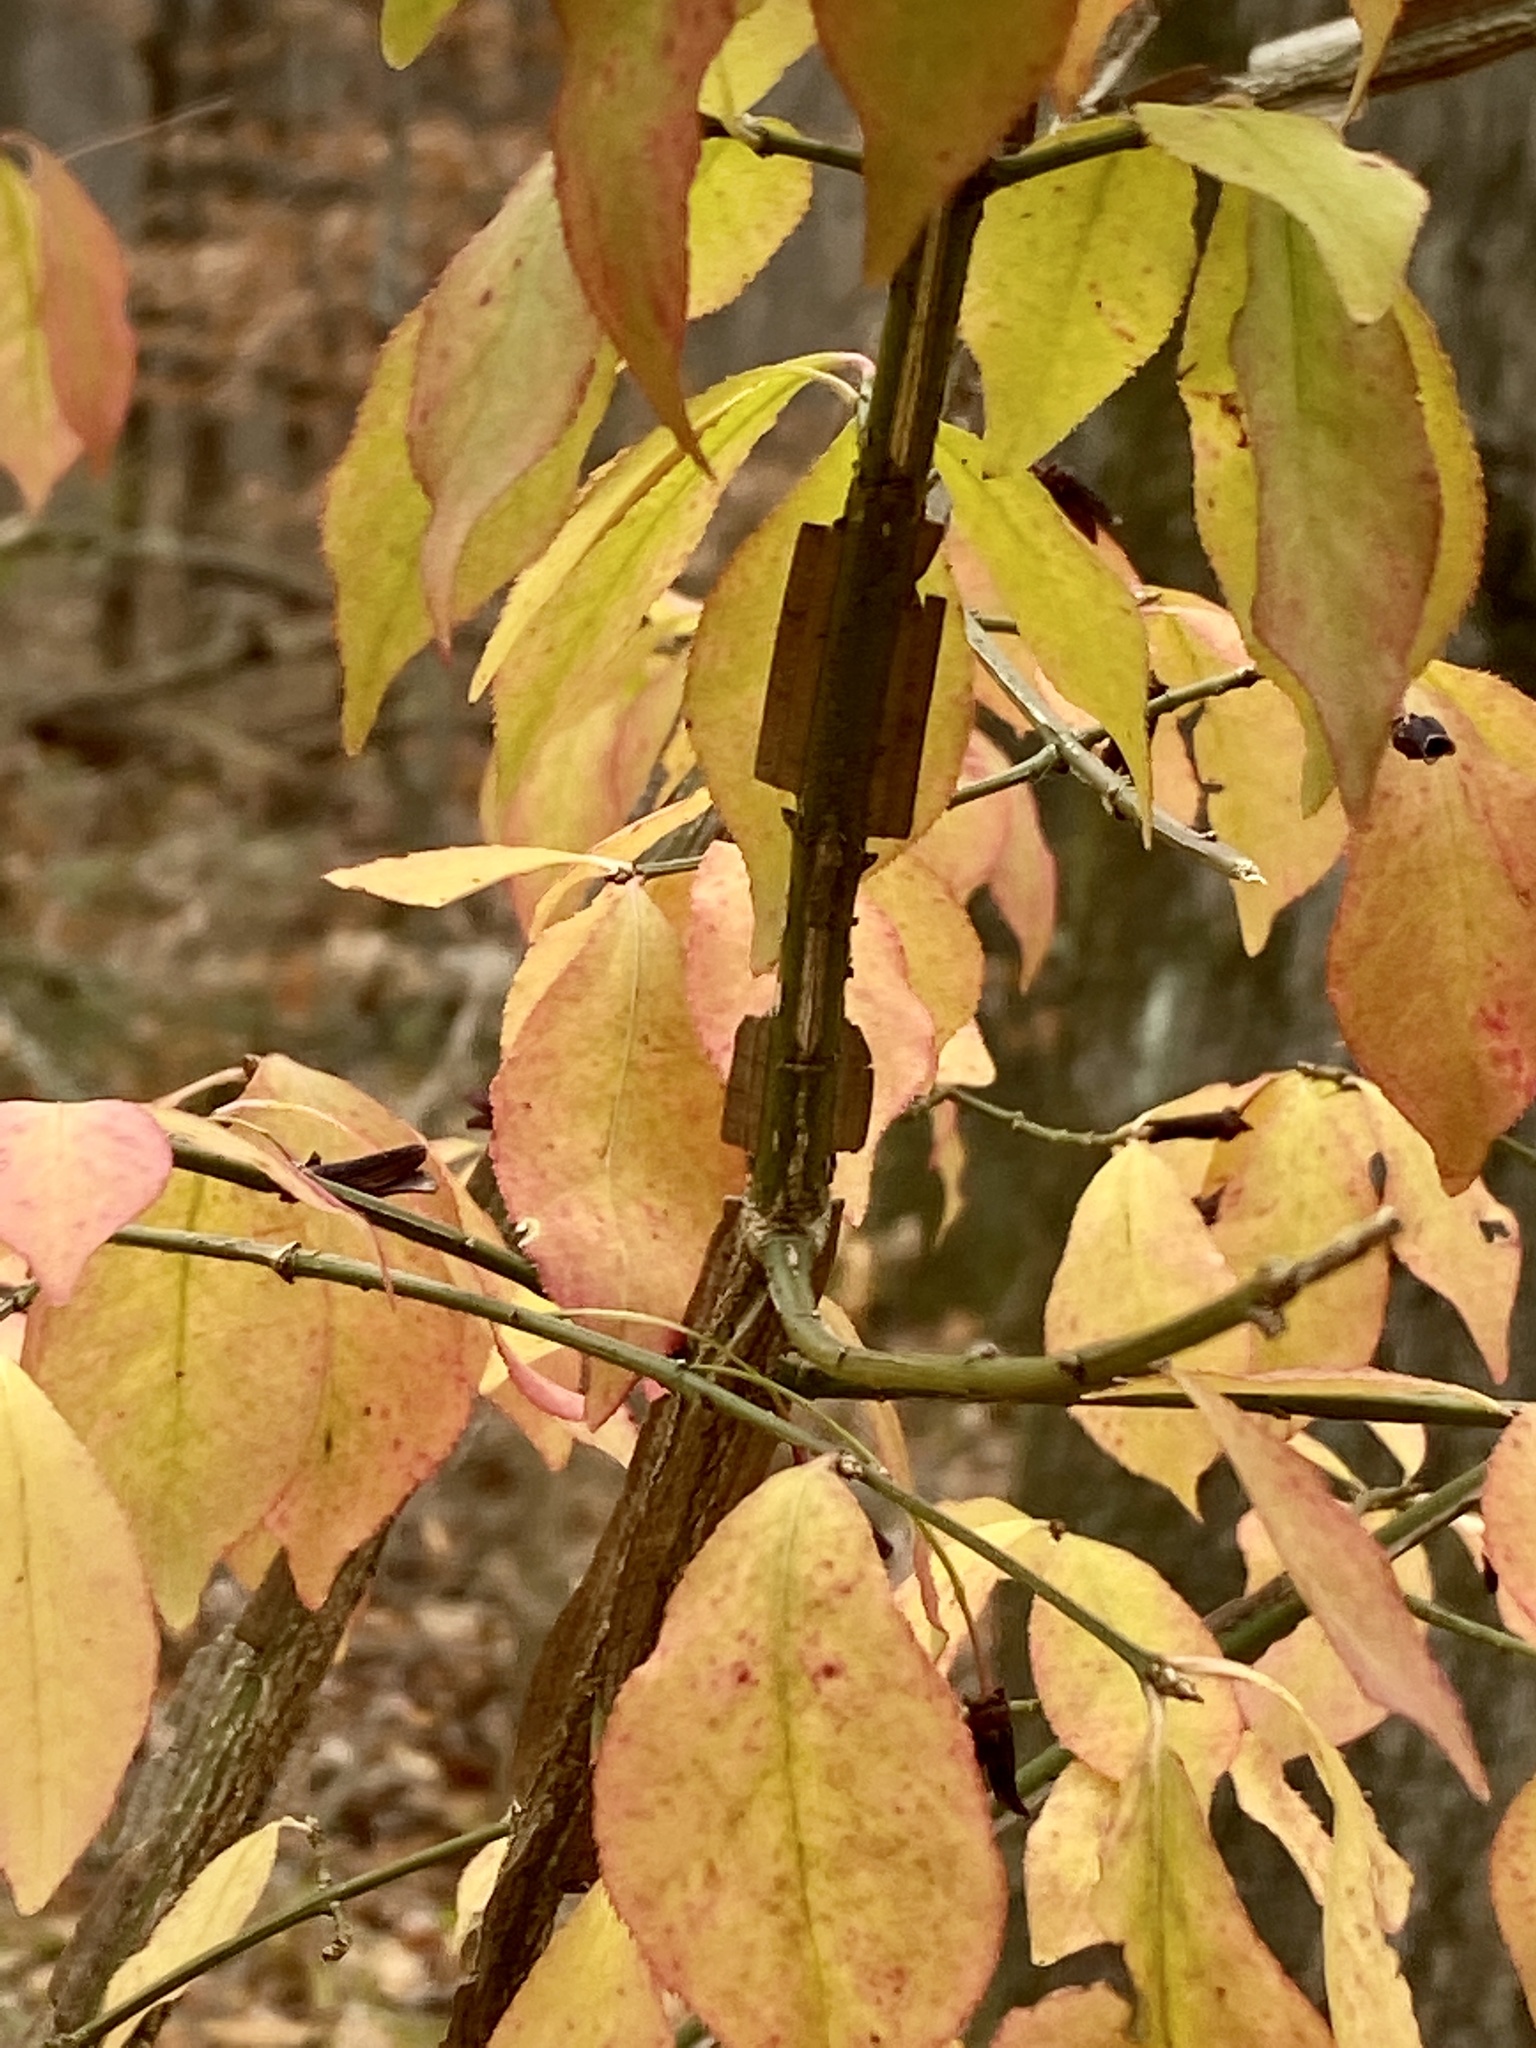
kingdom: Plantae
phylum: Tracheophyta
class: Magnoliopsida
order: Celastrales
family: Celastraceae
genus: Euonymus
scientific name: Euonymus alatus
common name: Winged euonymus
